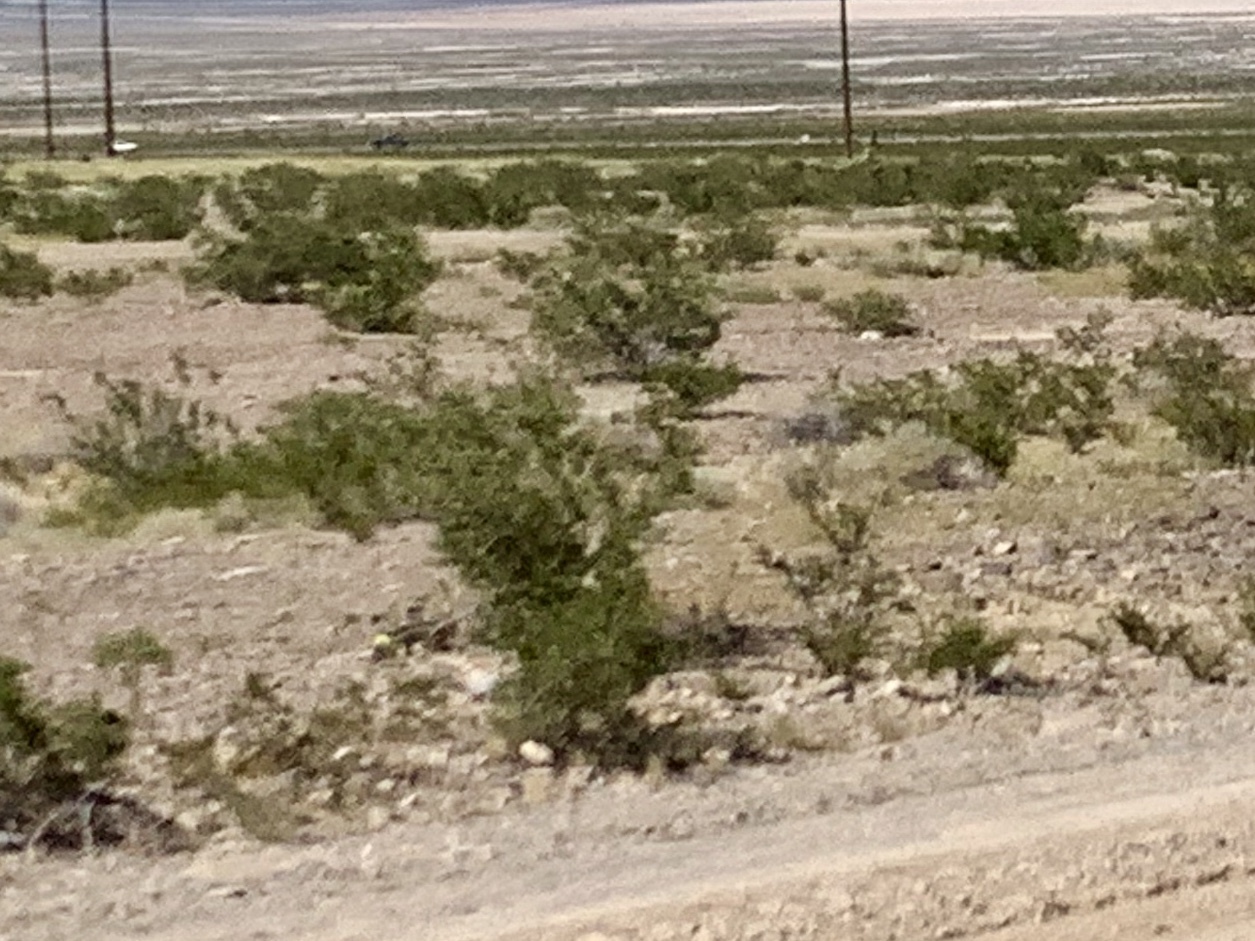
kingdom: Plantae
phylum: Tracheophyta
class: Magnoliopsida
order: Zygophyllales
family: Zygophyllaceae
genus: Larrea
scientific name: Larrea tridentata
